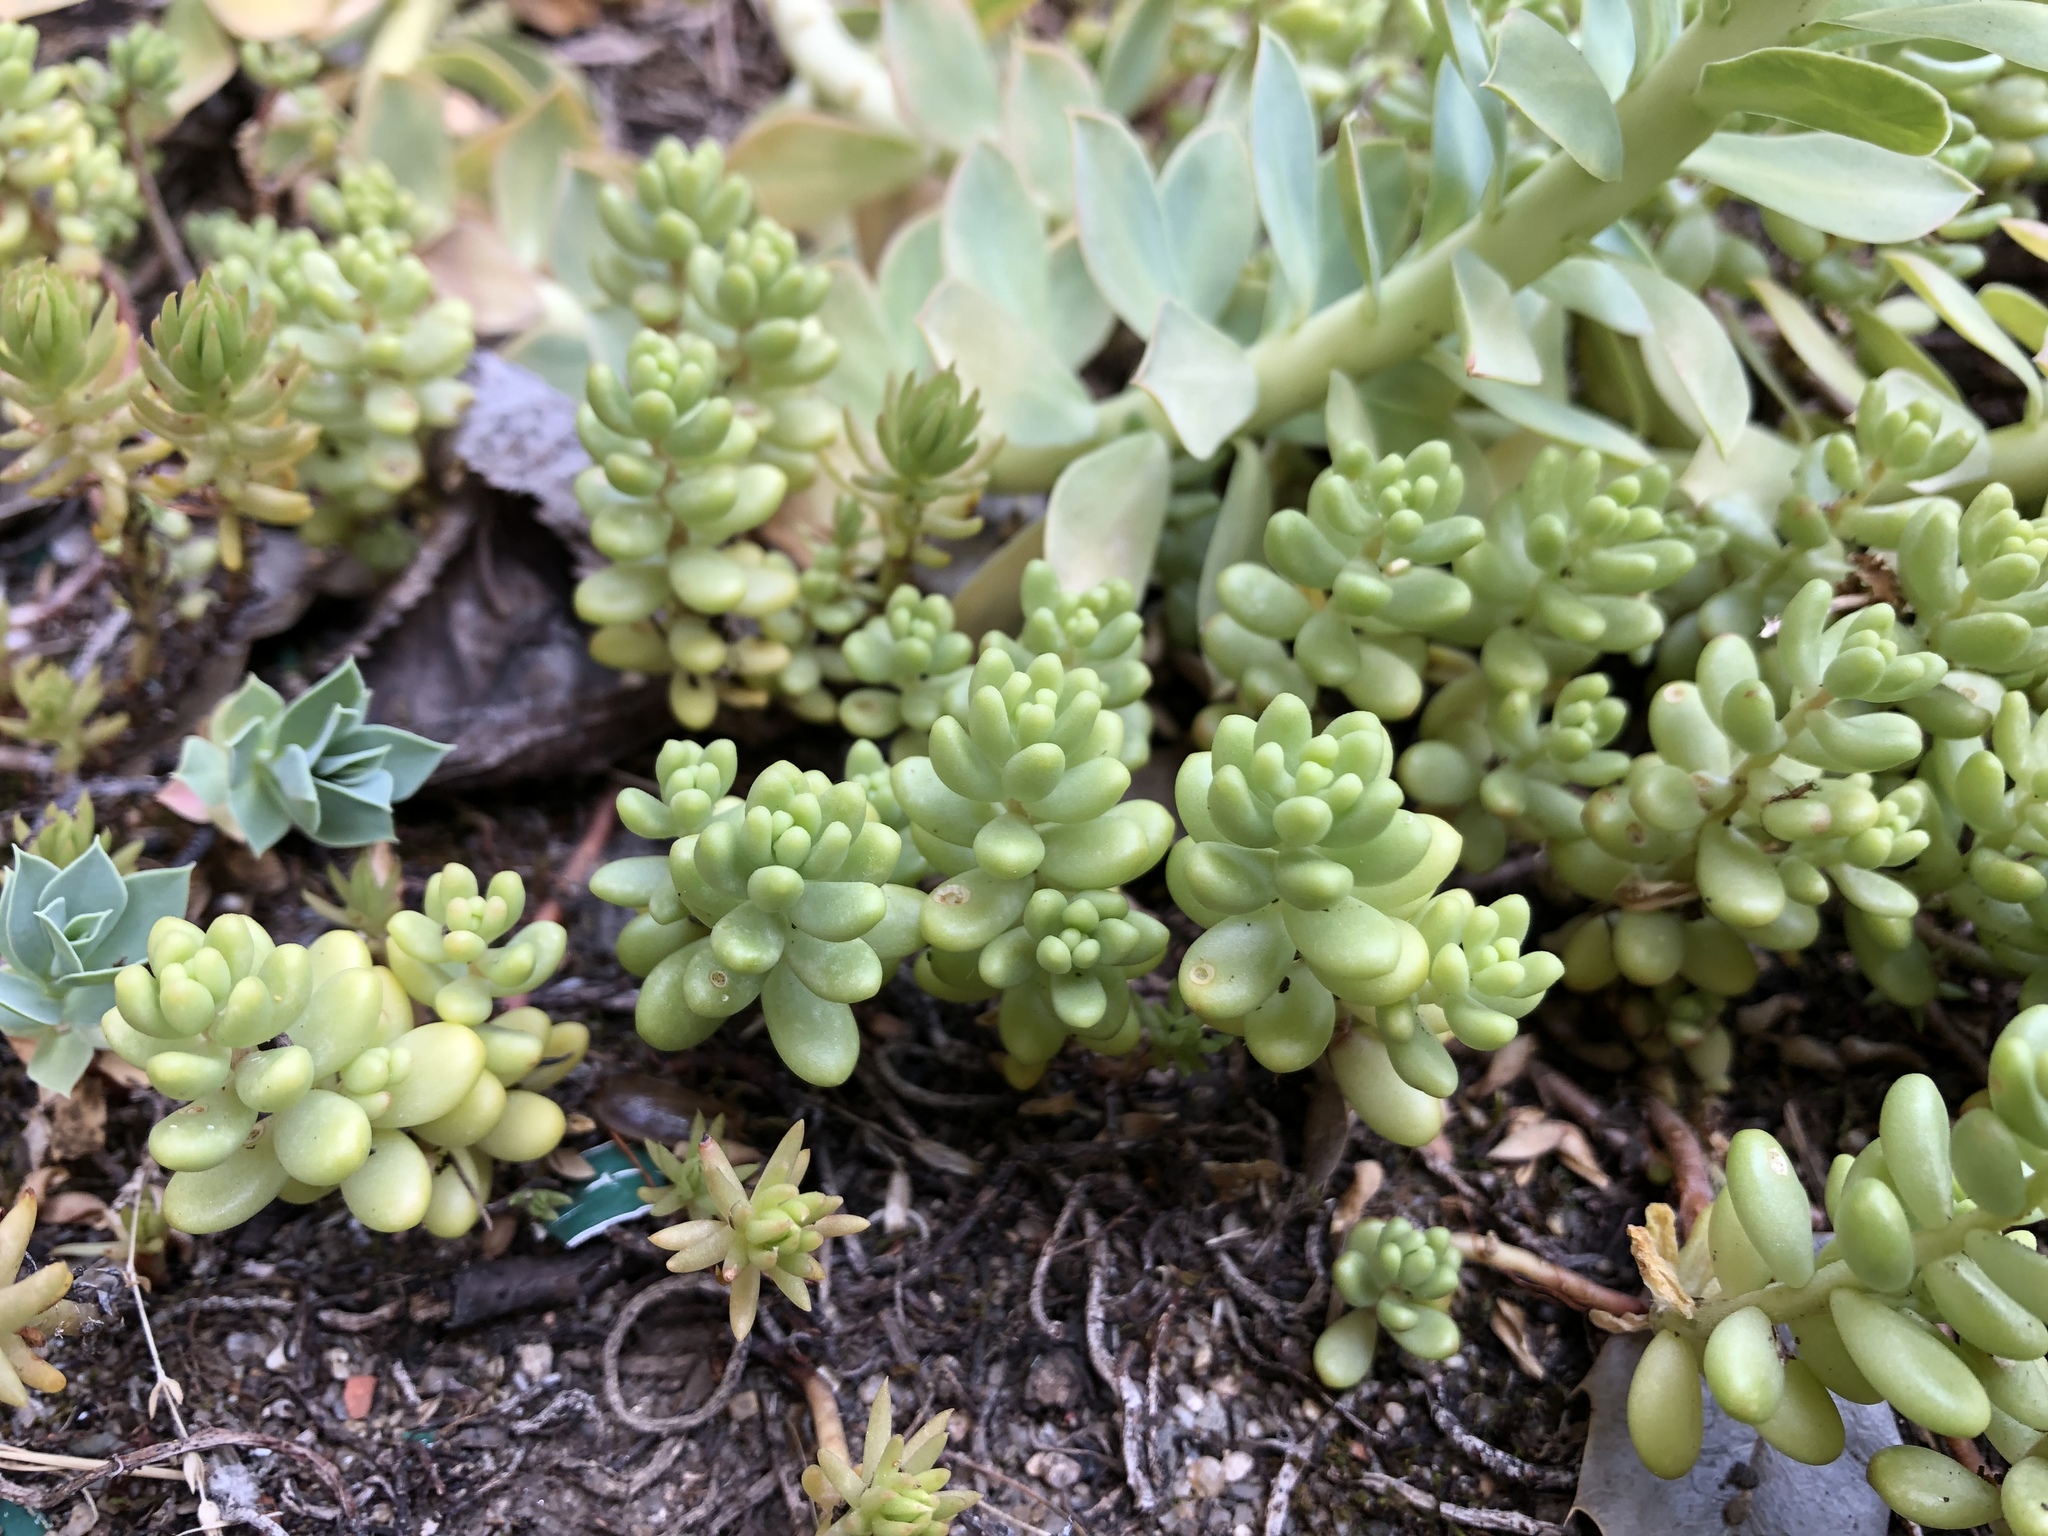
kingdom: Plantae
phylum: Tracheophyta
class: Magnoliopsida
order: Saxifragales
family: Crassulaceae
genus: Sedum
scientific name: Sedum album
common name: White stonecrop
